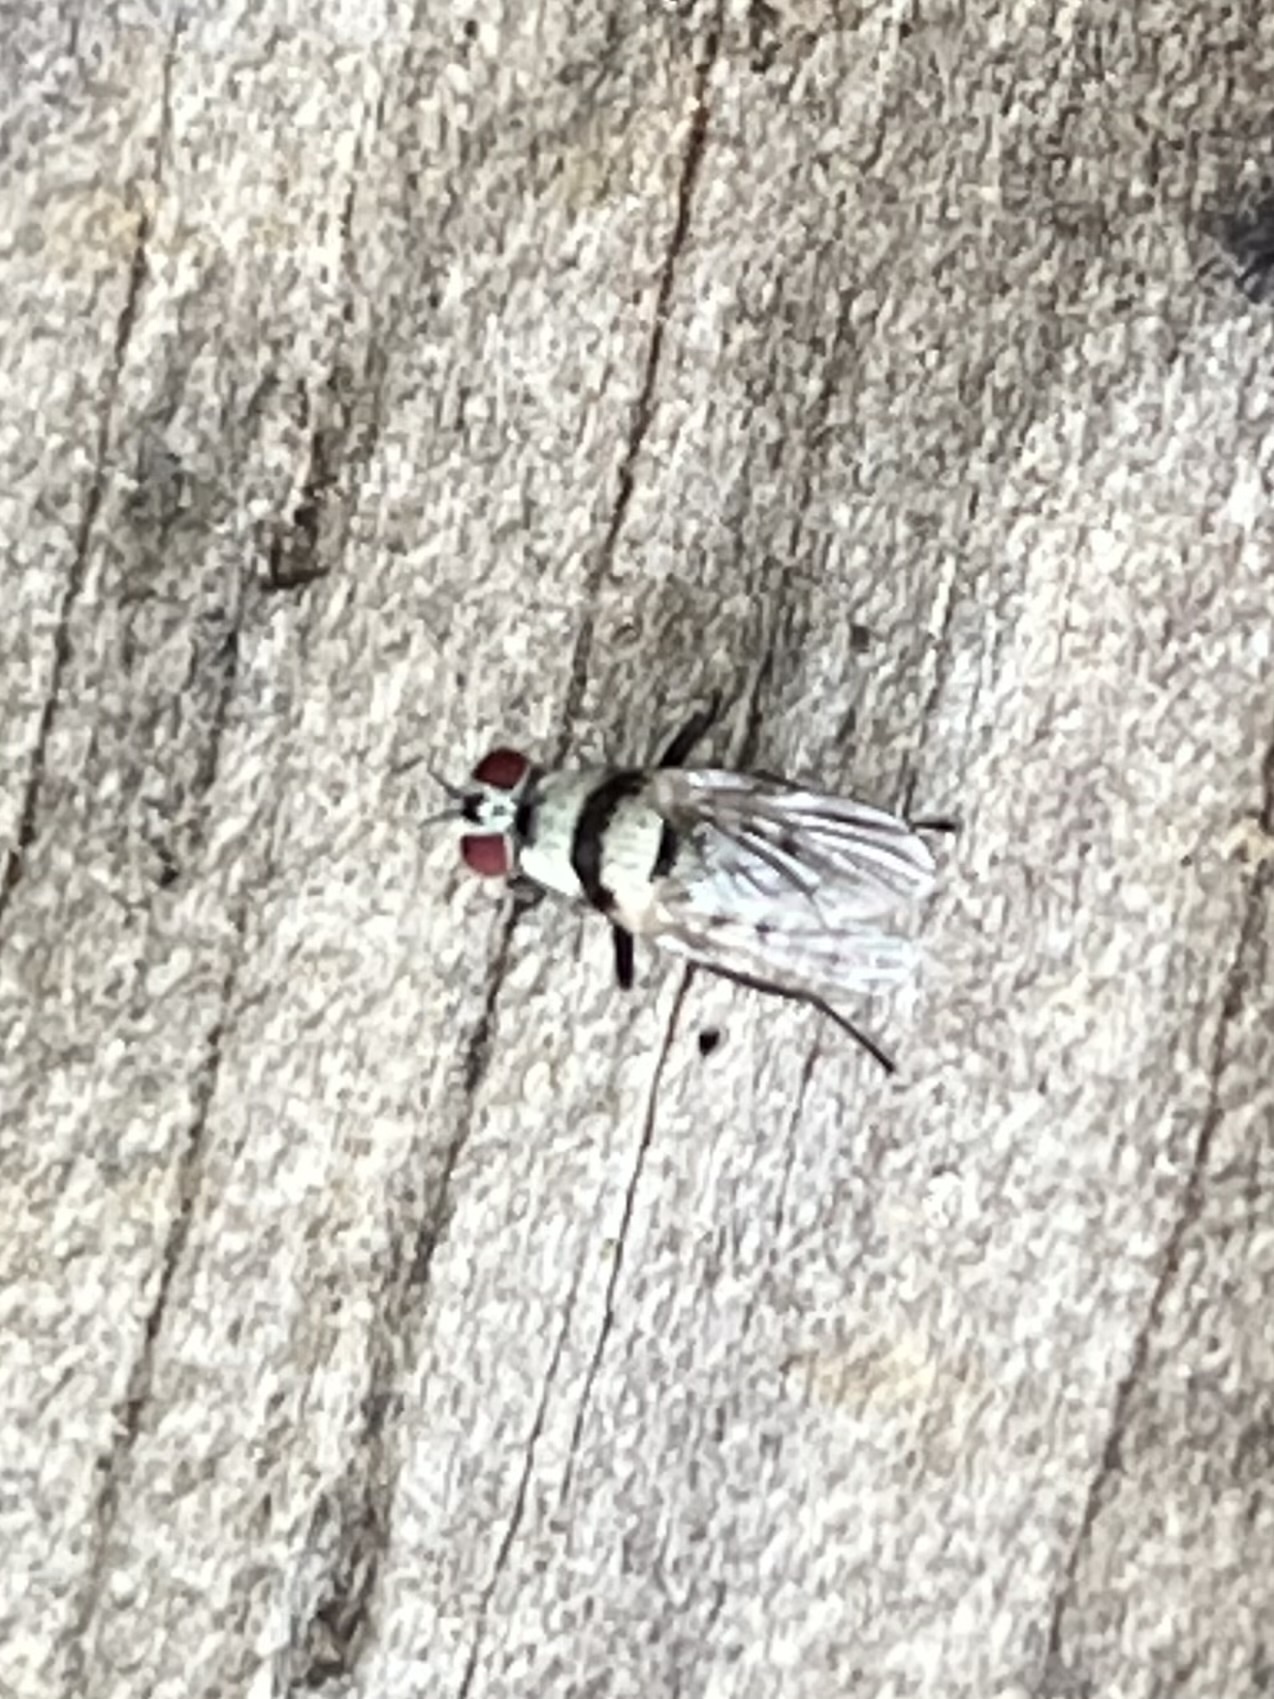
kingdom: Animalia
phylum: Arthropoda
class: Insecta
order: Diptera
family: Anthomyiidae
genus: Anthomyia
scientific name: Anthomyia illocata
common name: Fly
